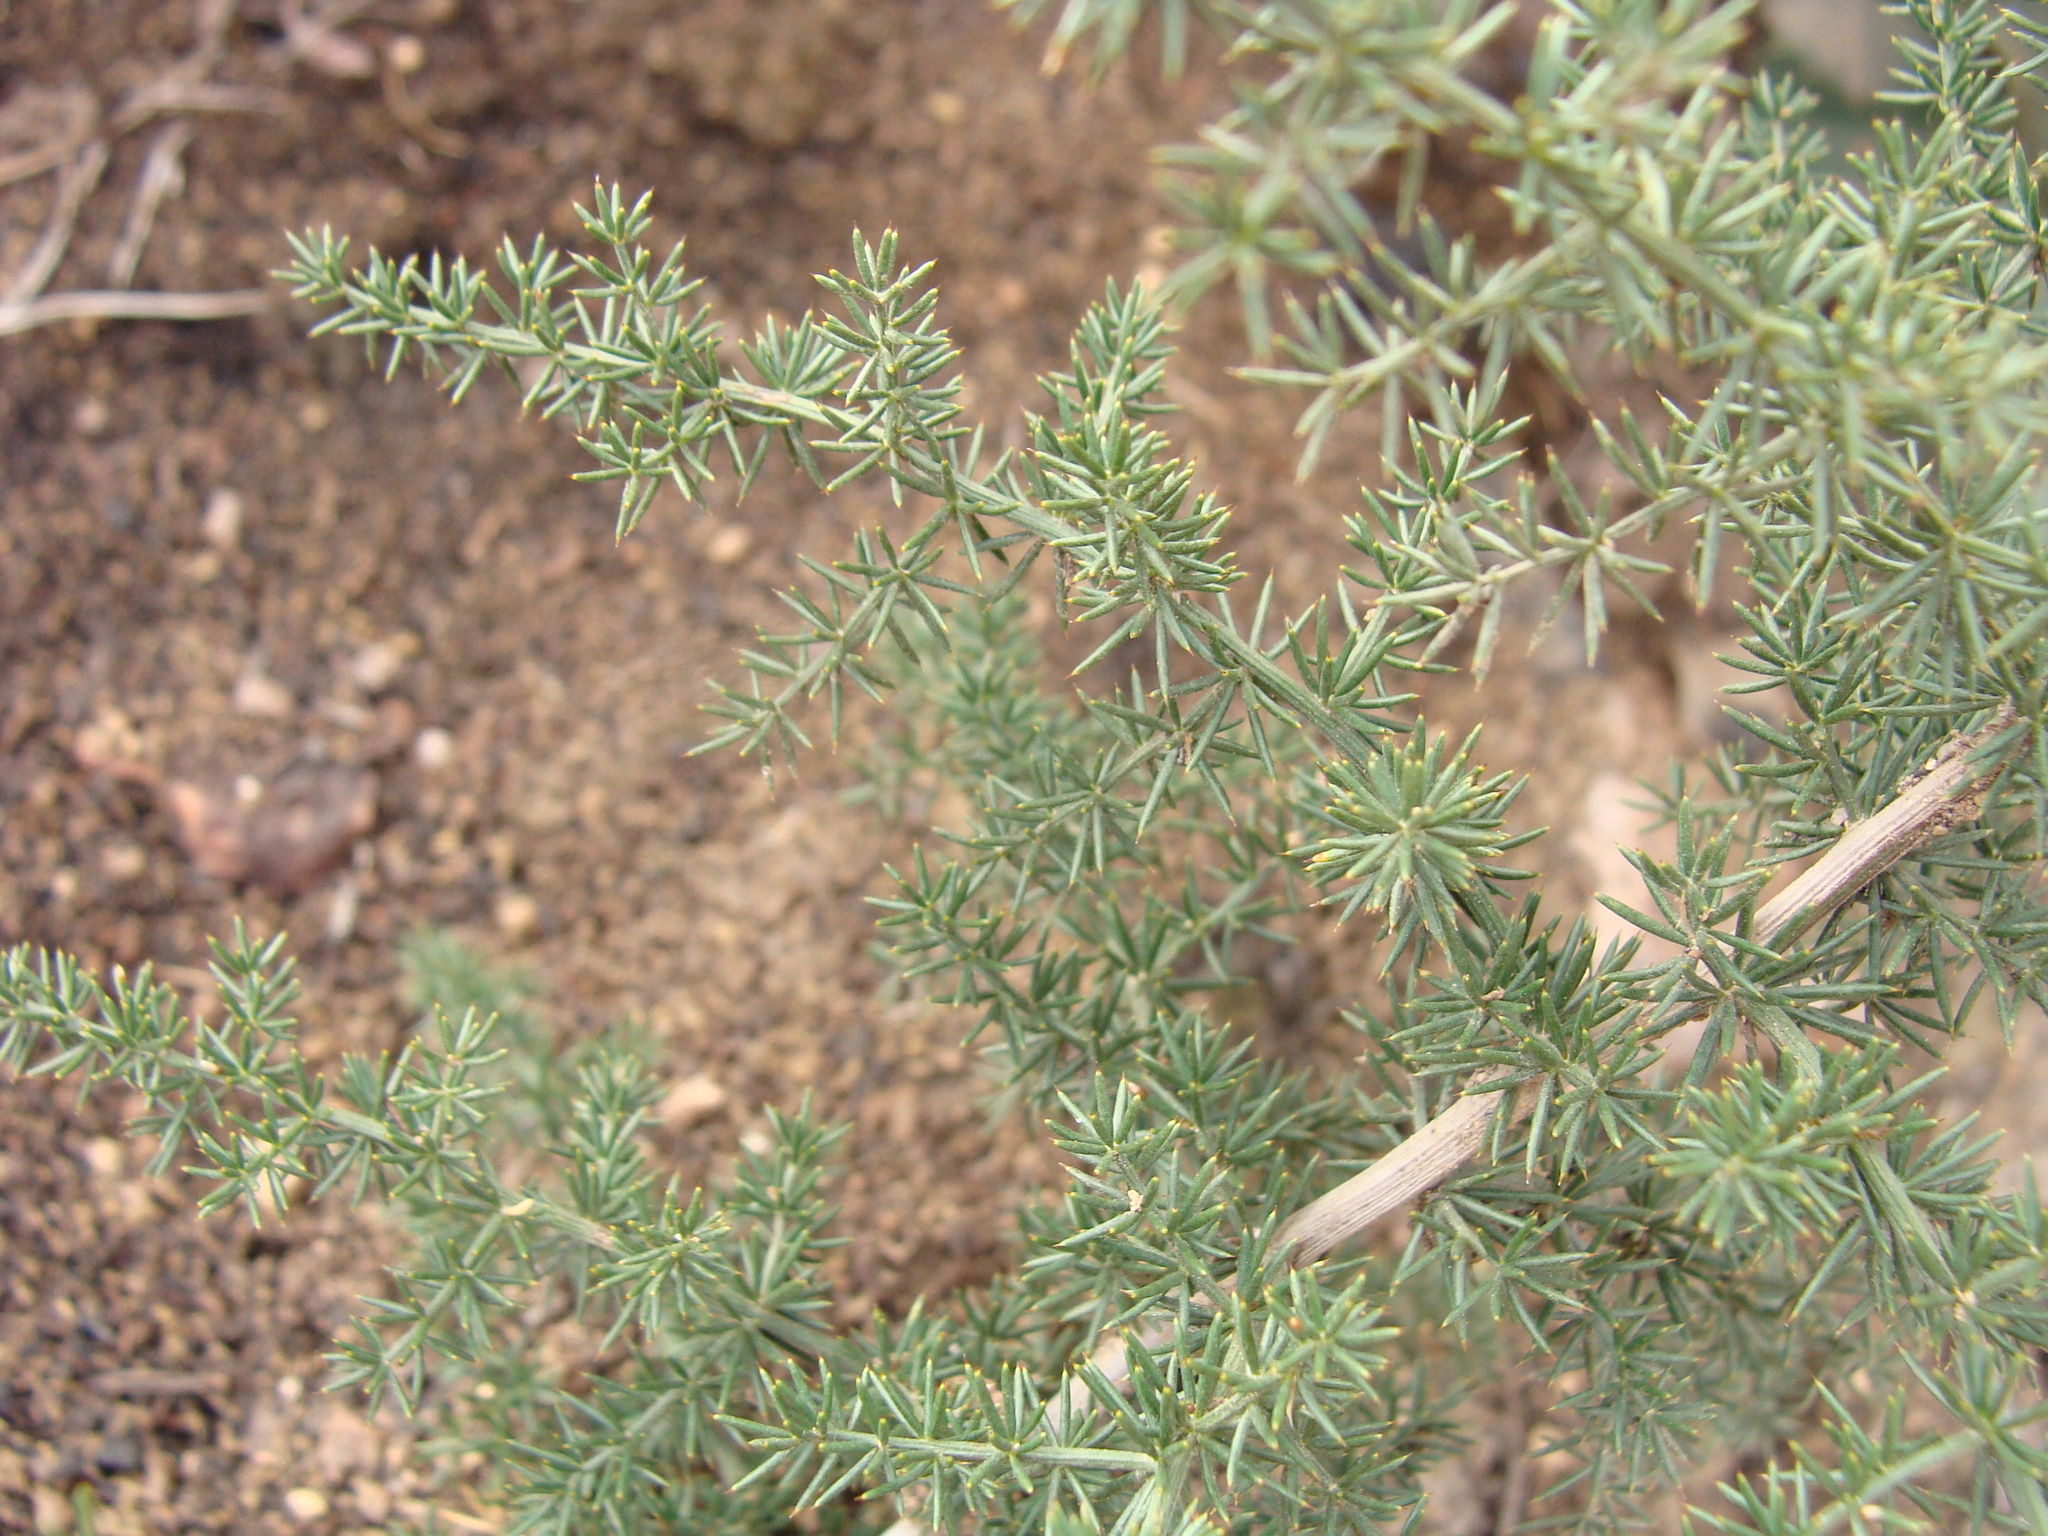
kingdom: Plantae
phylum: Tracheophyta
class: Liliopsida
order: Asparagales
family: Asparagaceae
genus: Asparagus
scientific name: Asparagus acutifolius
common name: Wild asparagus
